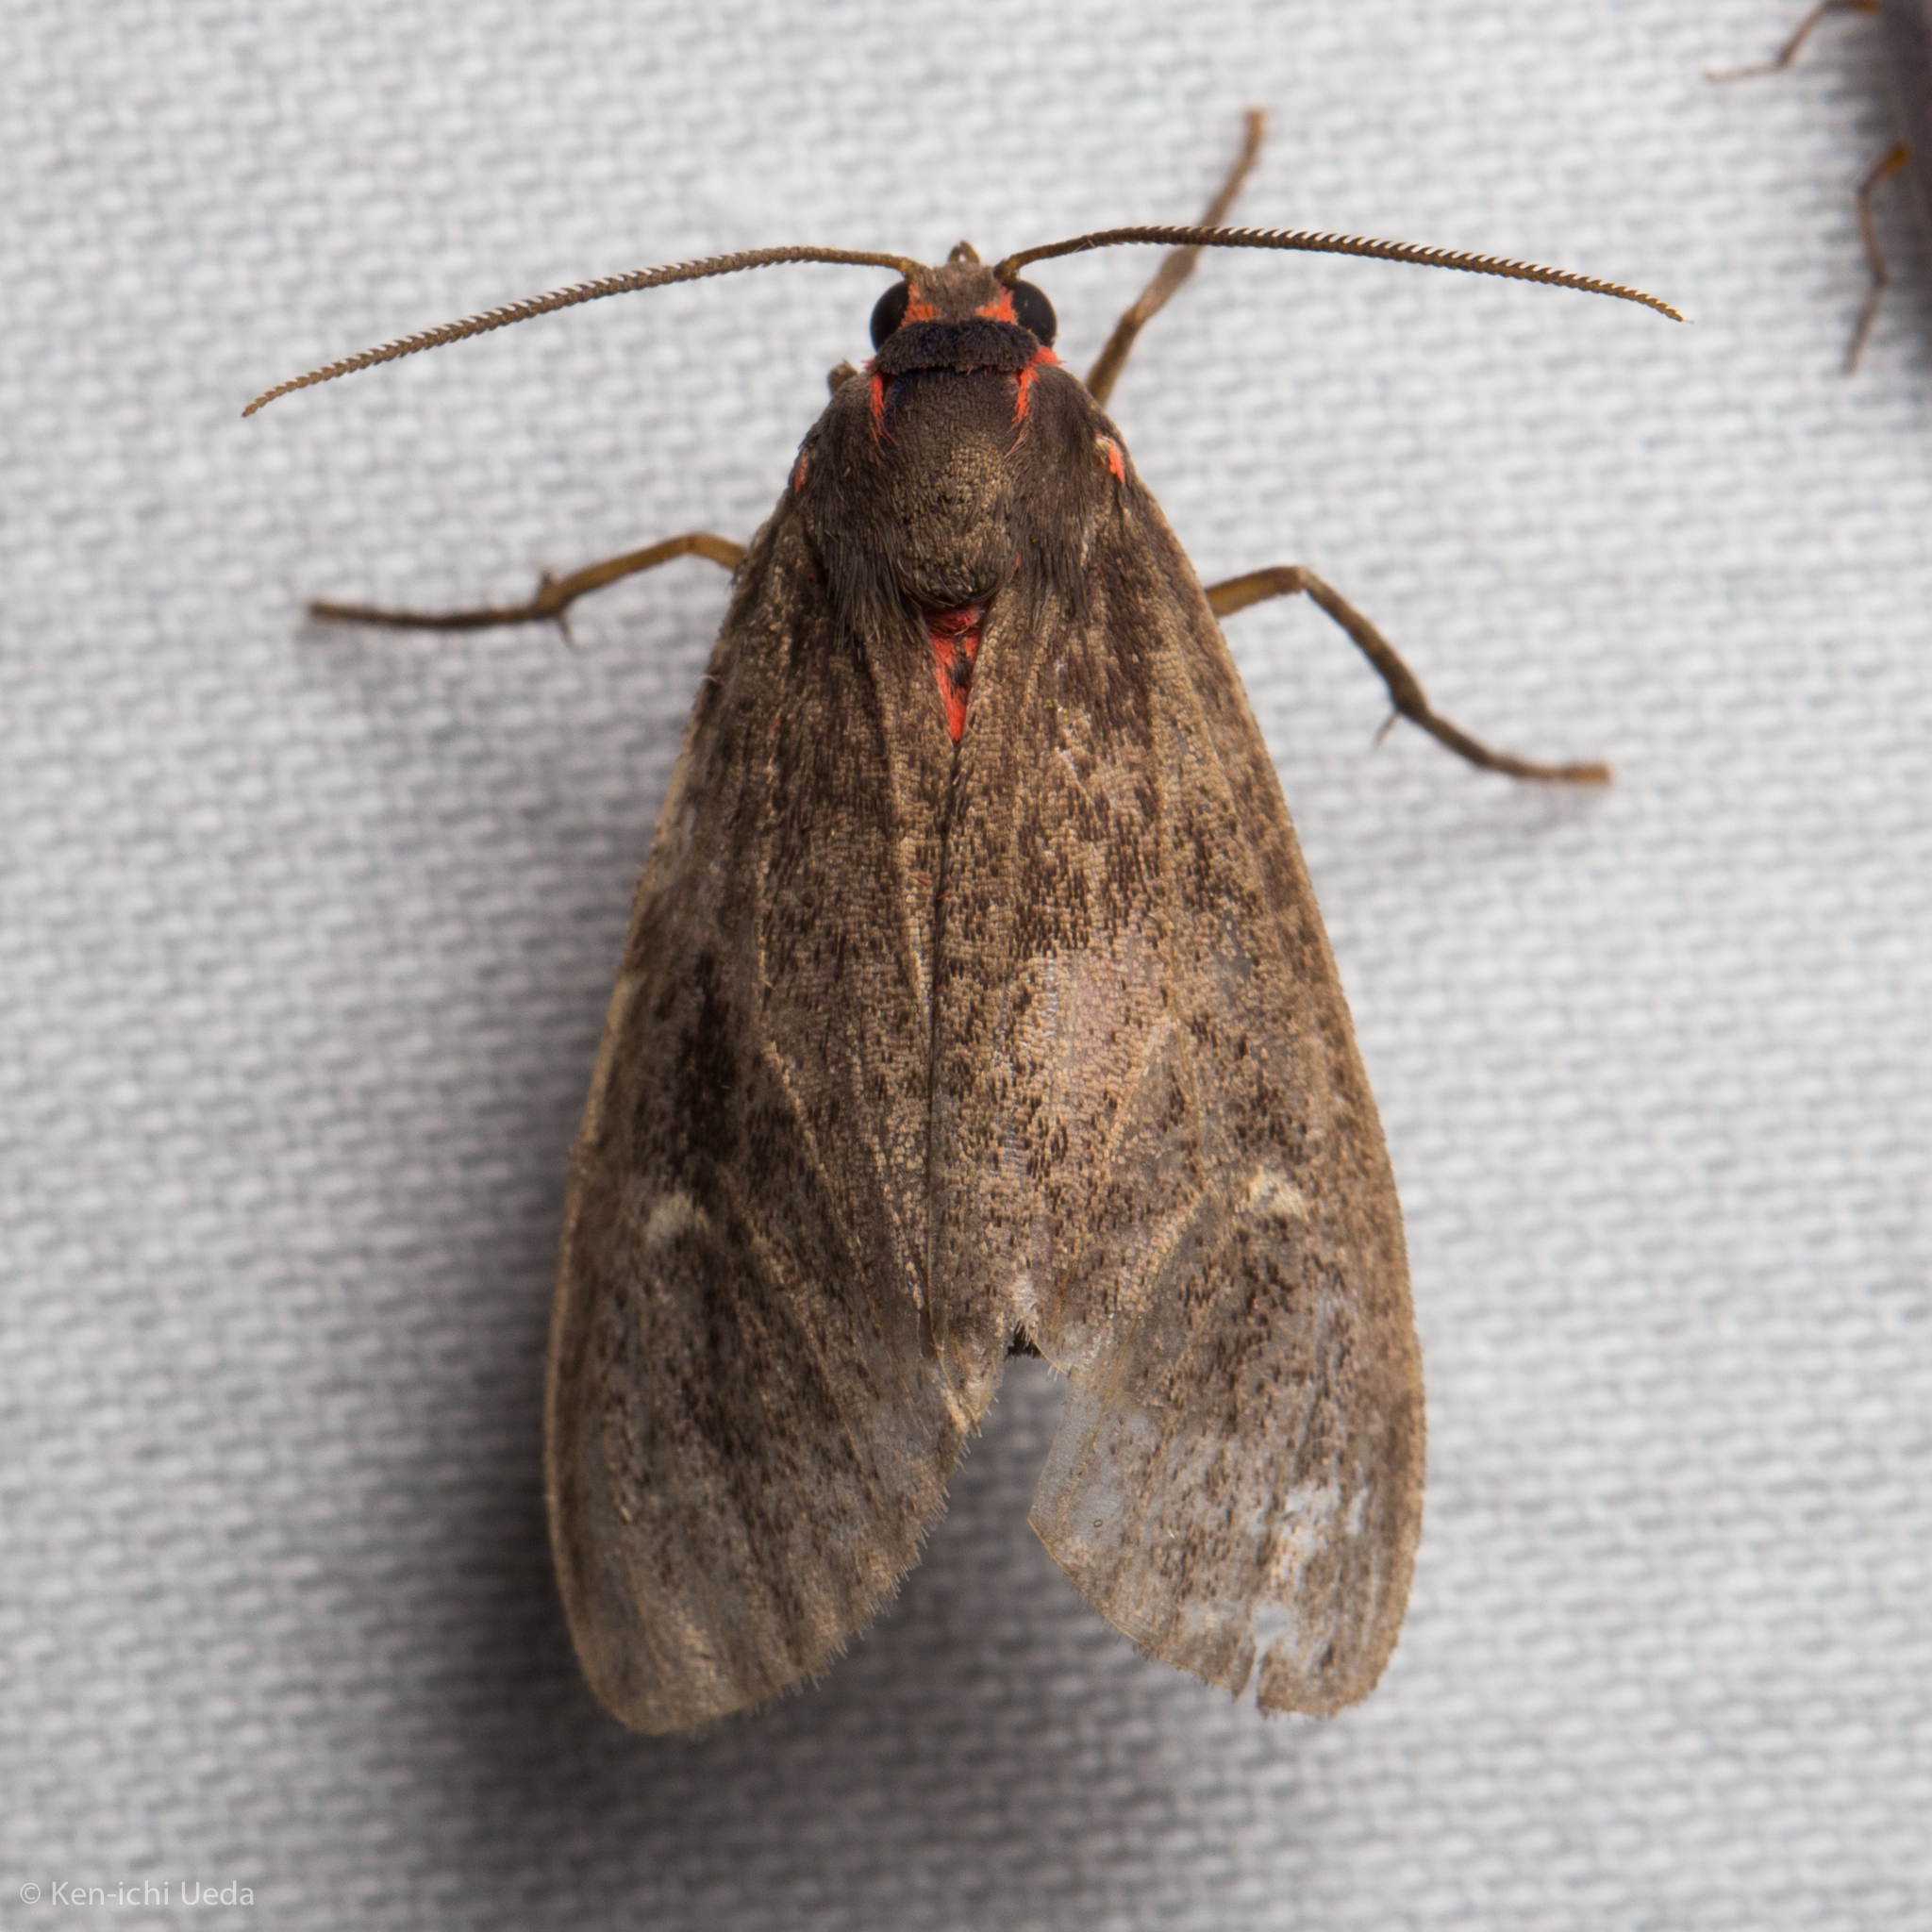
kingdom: Animalia
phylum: Arthropoda
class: Insecta
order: Lepidoptera
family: Erebidae
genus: Euchaetes
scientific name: Euchaetes zella
